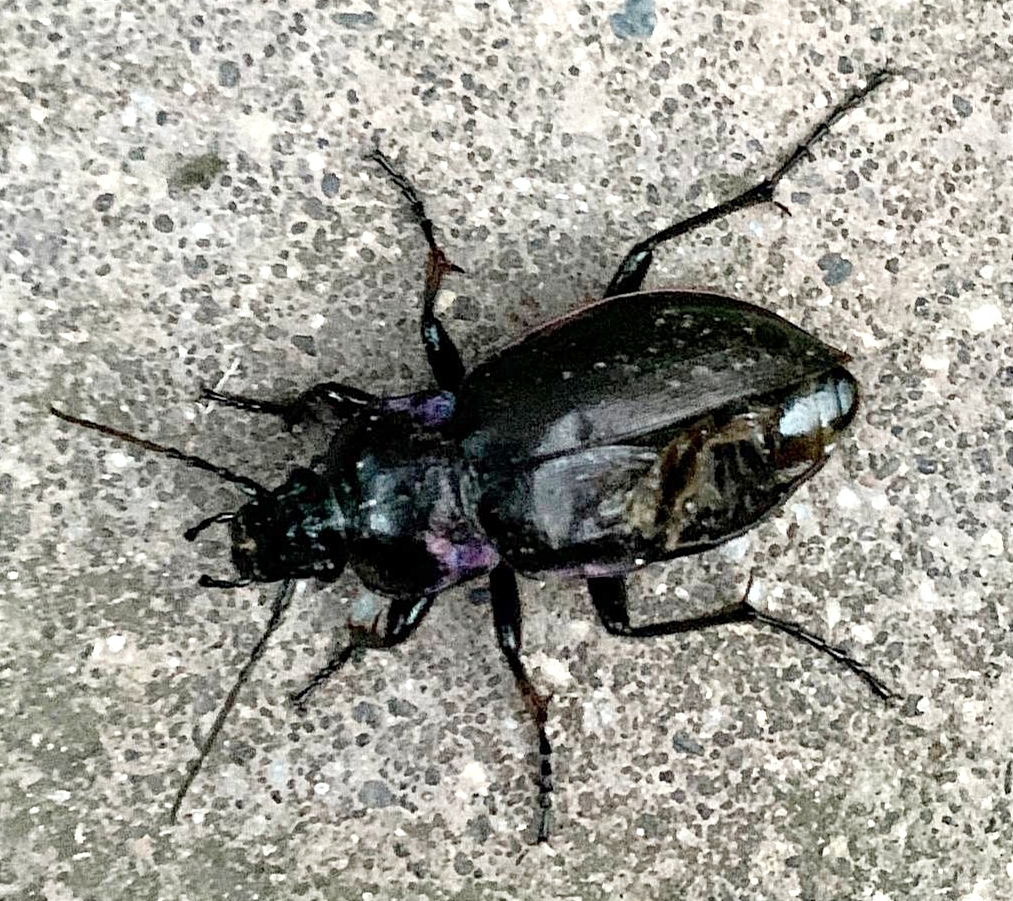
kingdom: Animalia
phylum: Arthropoda
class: Insecta
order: Coleoptera
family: Carabidae
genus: Carabus
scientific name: Carabus nemoralis
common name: European ground beetle
